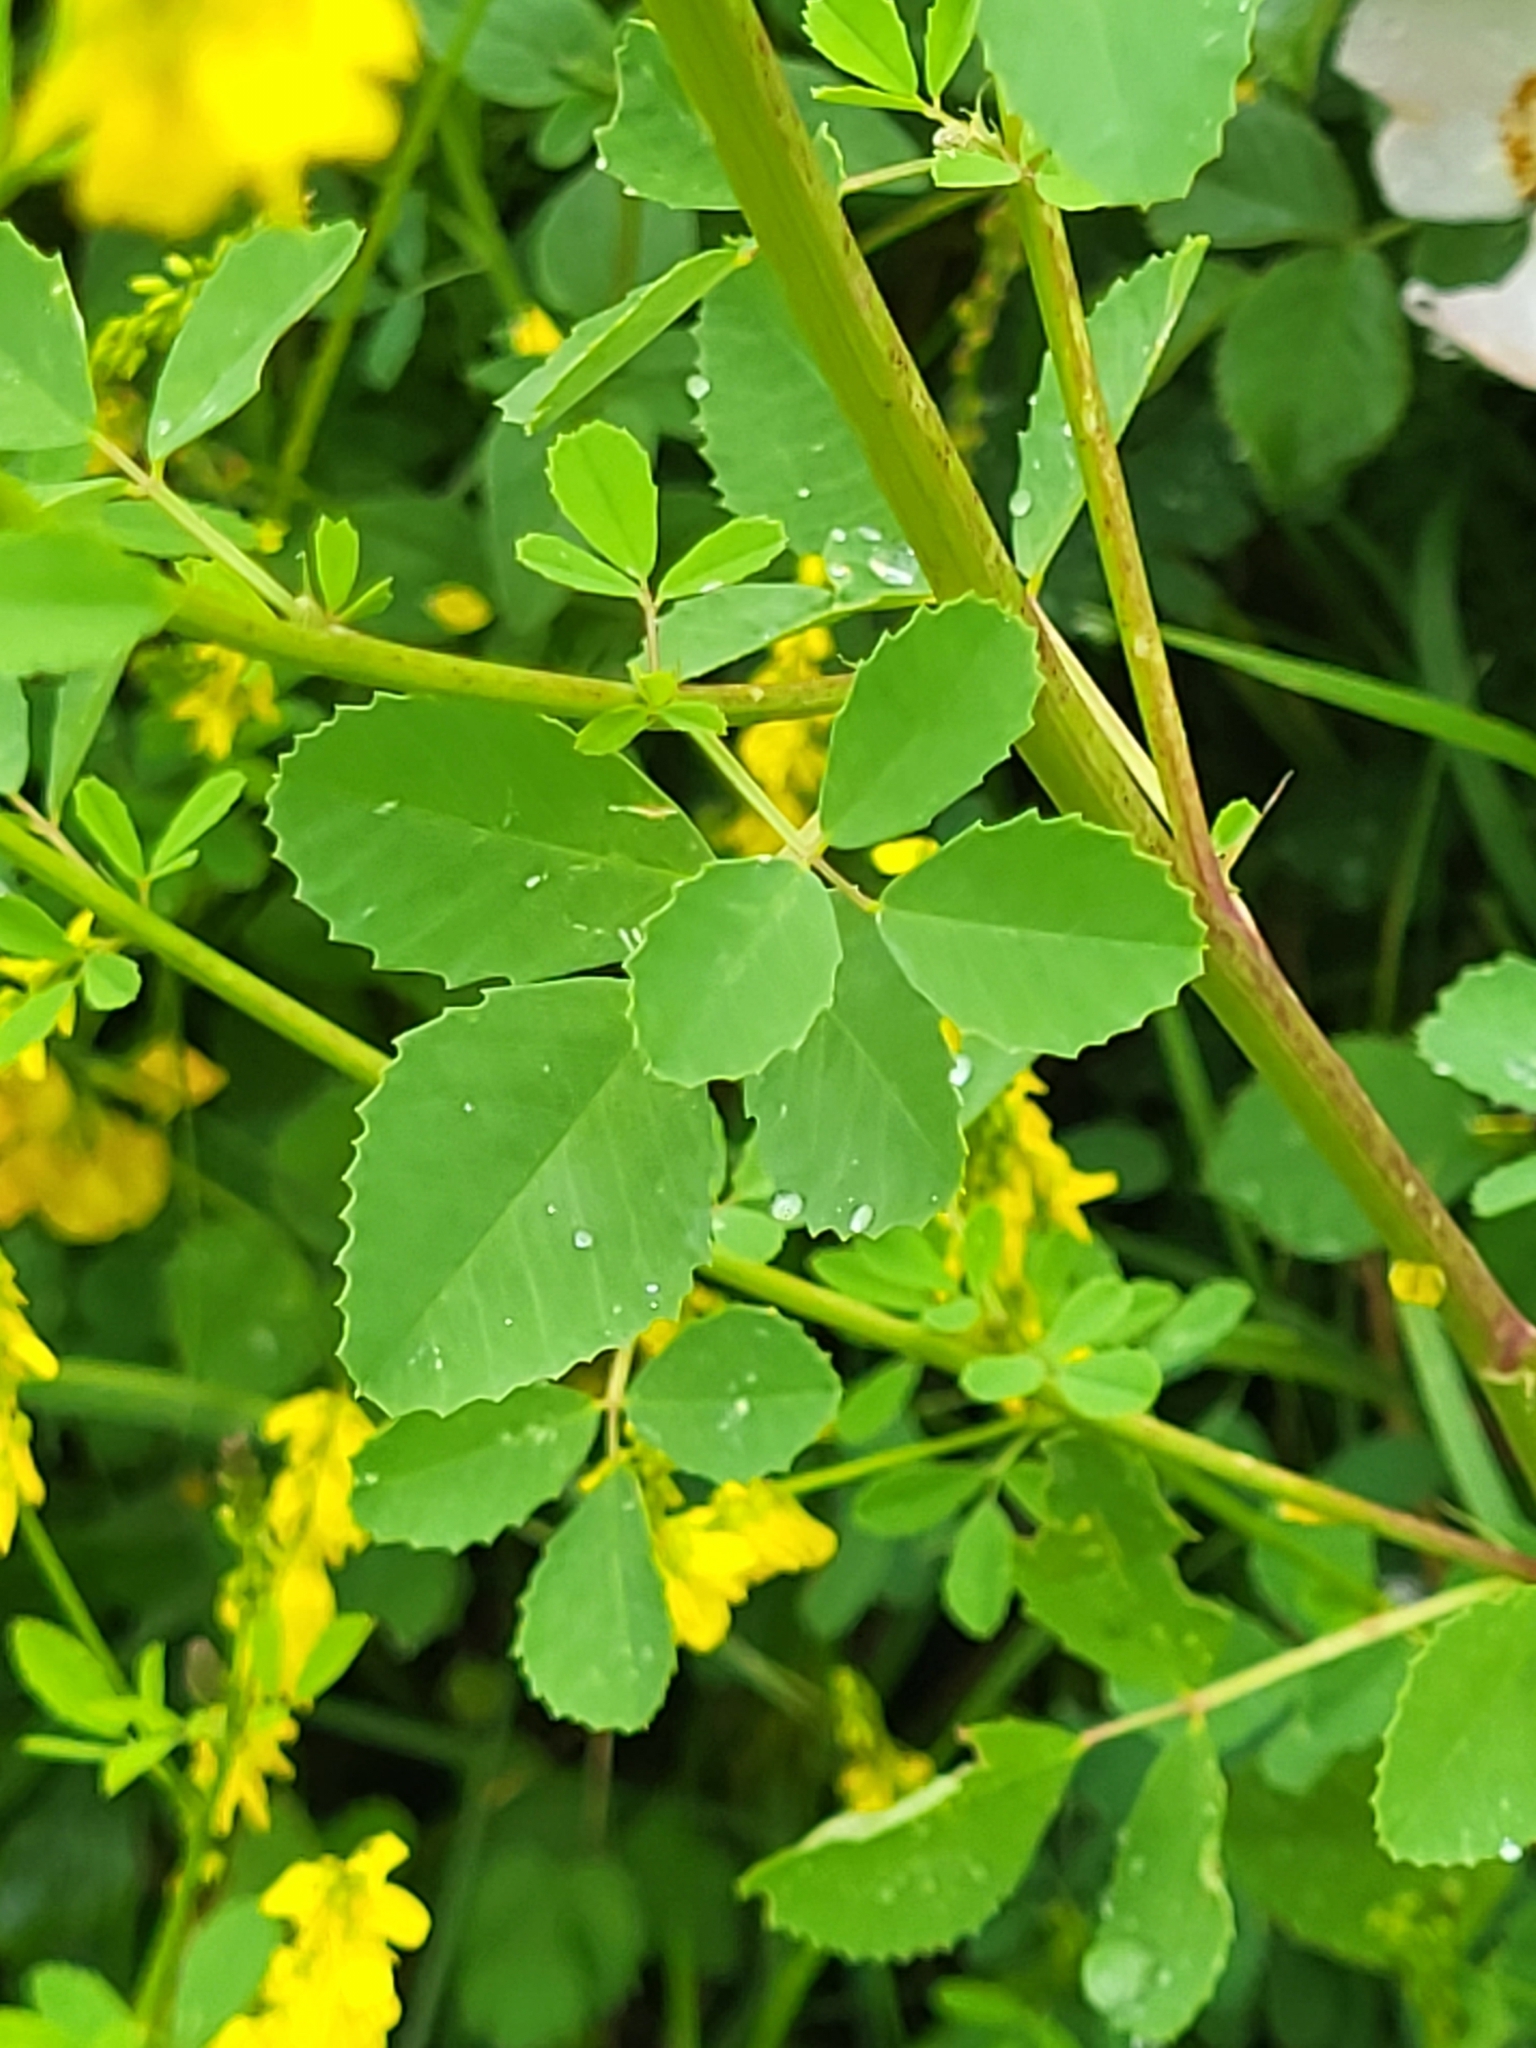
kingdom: Plantae
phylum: Tracheophyta
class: Magnoliopsida
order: Fabales
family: Fabaceae
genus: Melilotus
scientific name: Melilotus officinalis
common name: Sweetclover
